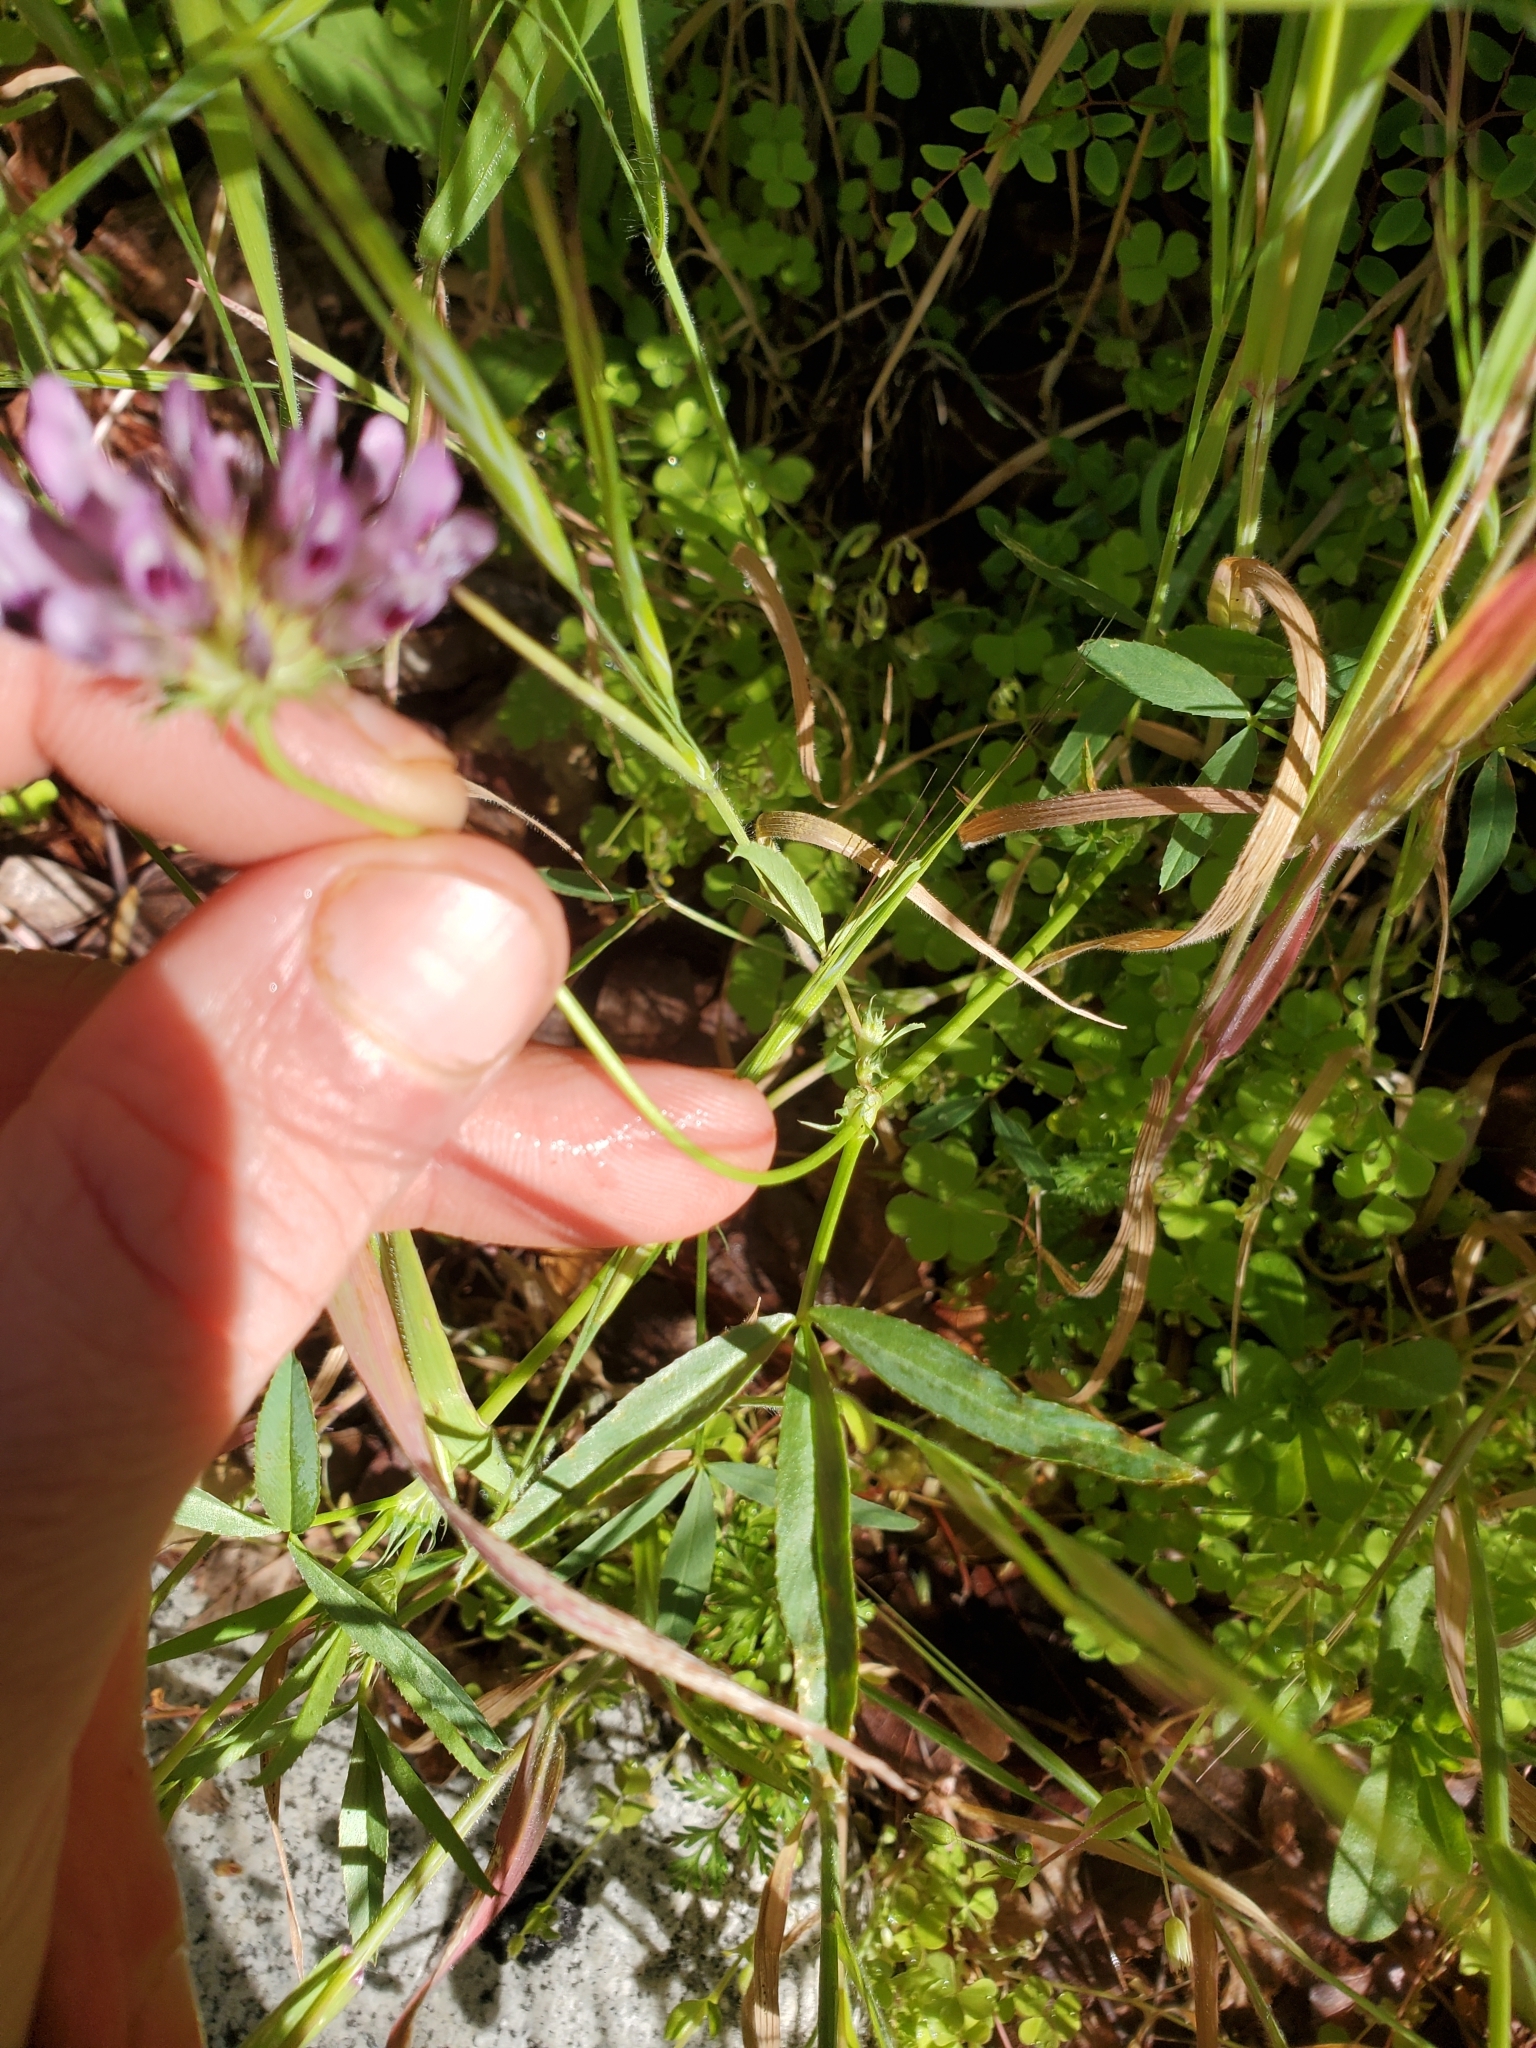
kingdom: Plantae
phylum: Tracheophyta
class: Magnoliopsida
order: Fabales
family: Fabaceae
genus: Trifolium
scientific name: Trifolium willdenovii
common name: Tomcat clover
